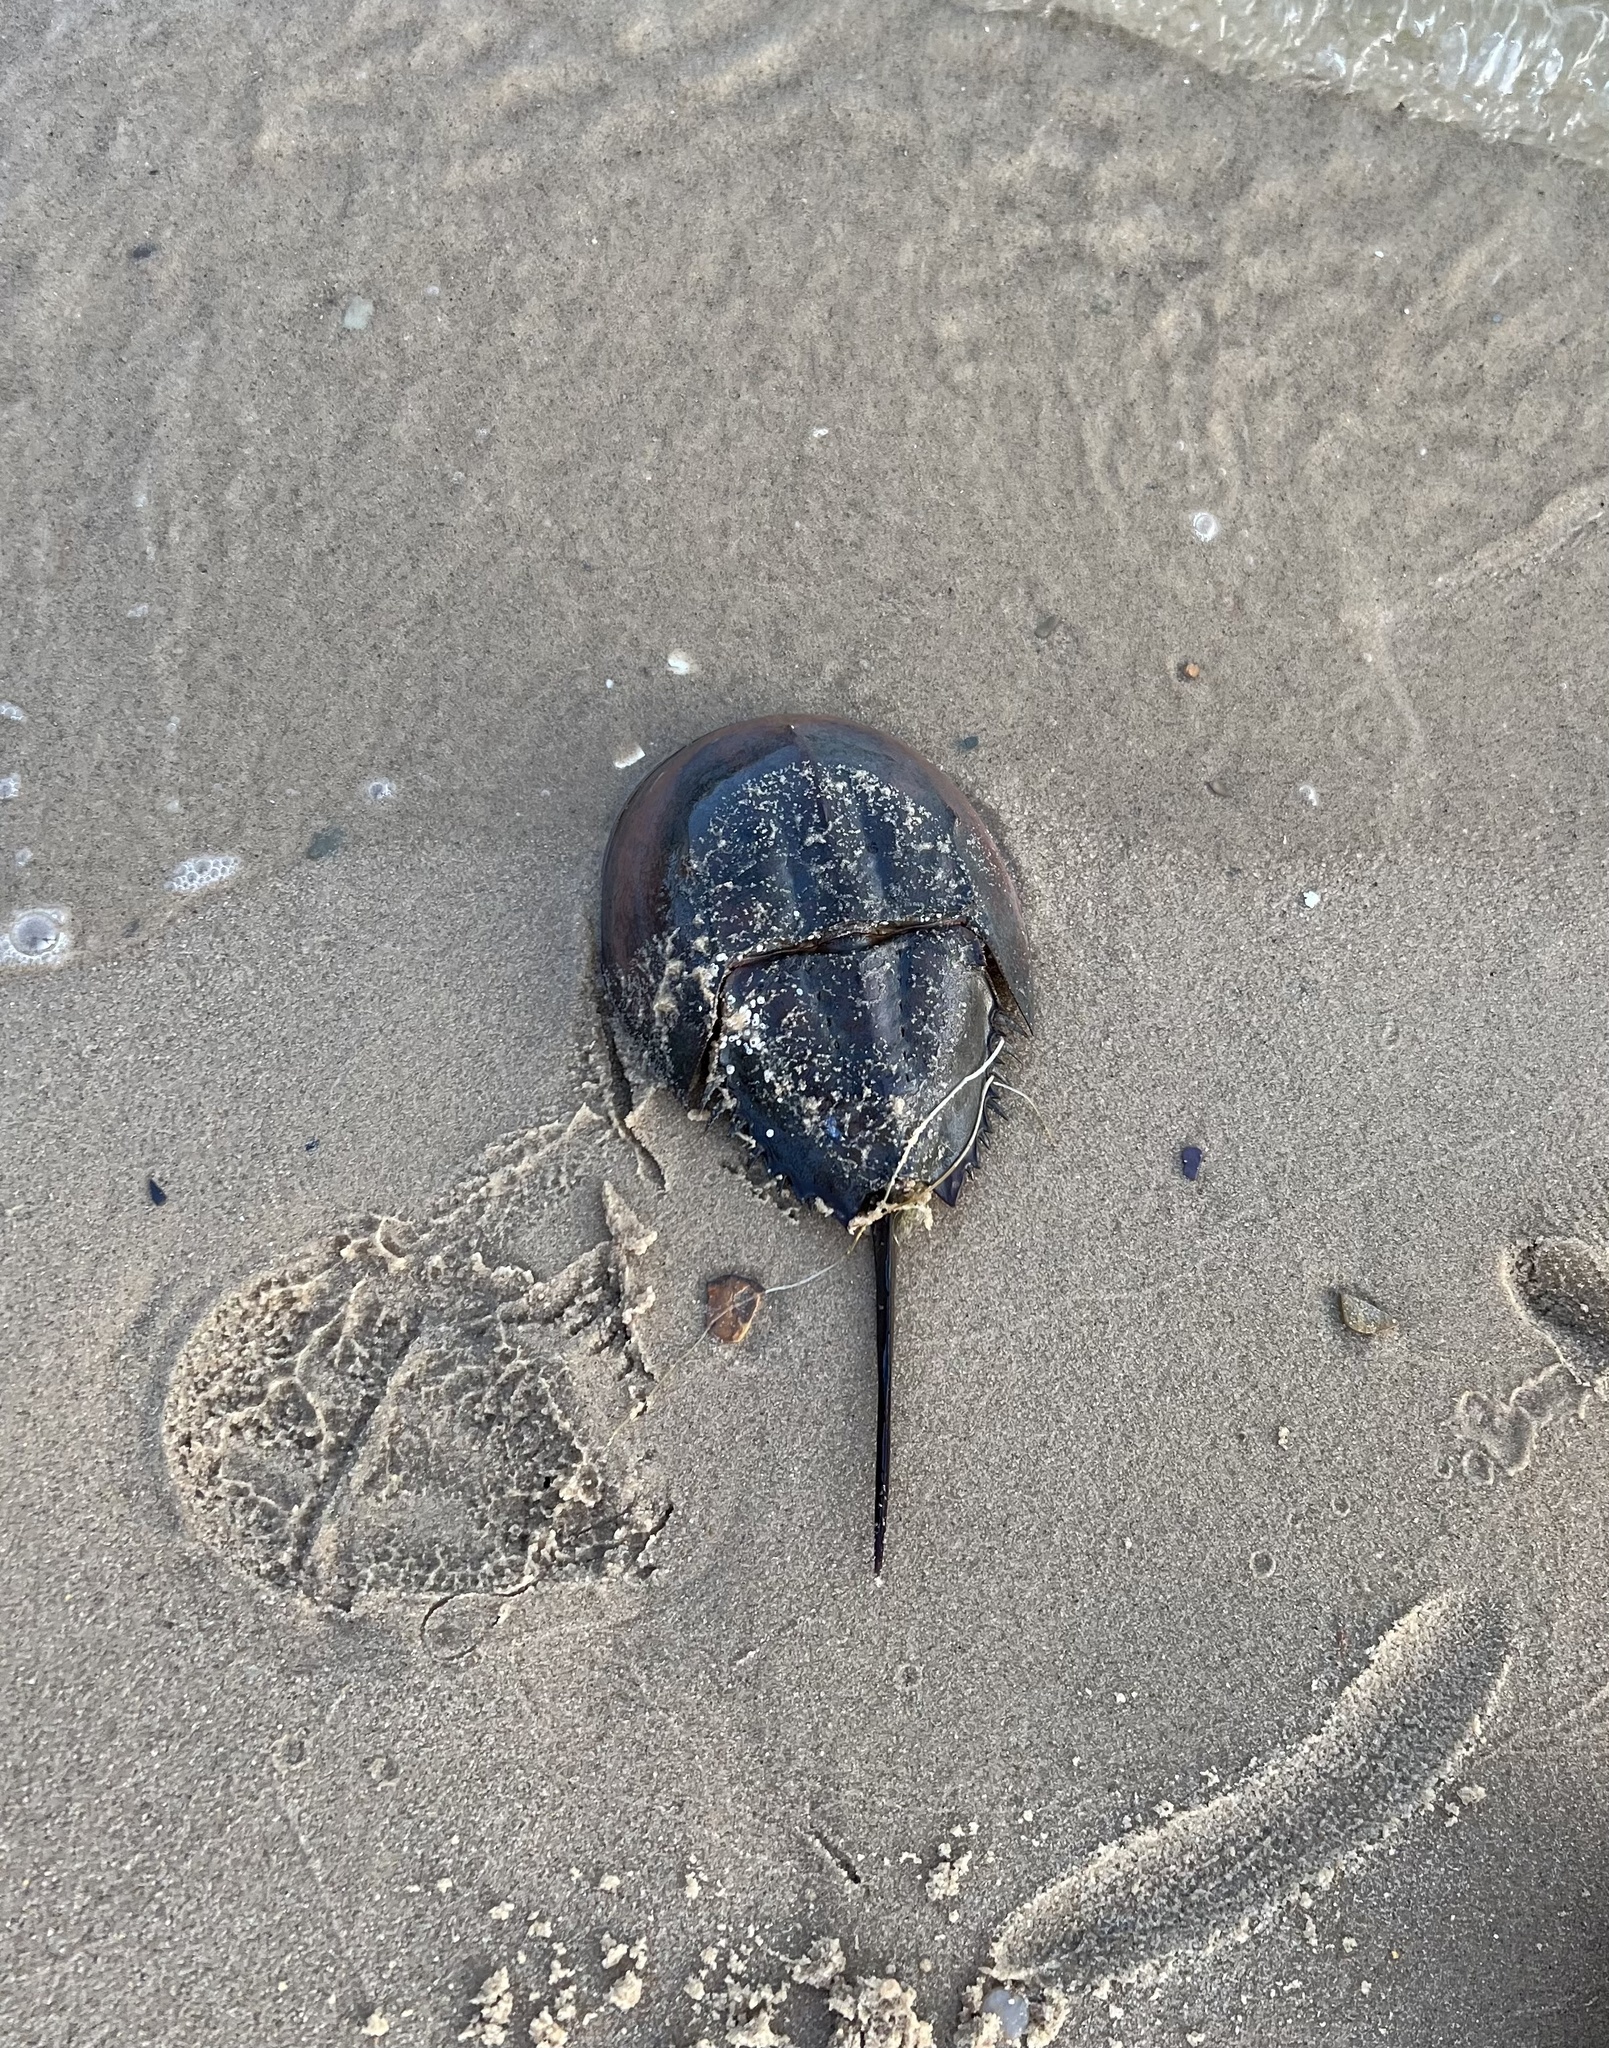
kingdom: Animalia
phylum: Arthropoda
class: Merostomata
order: Xiphosurida
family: Limulidae
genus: Limulus
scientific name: Limulus polyphemus
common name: Horseshoe crab
